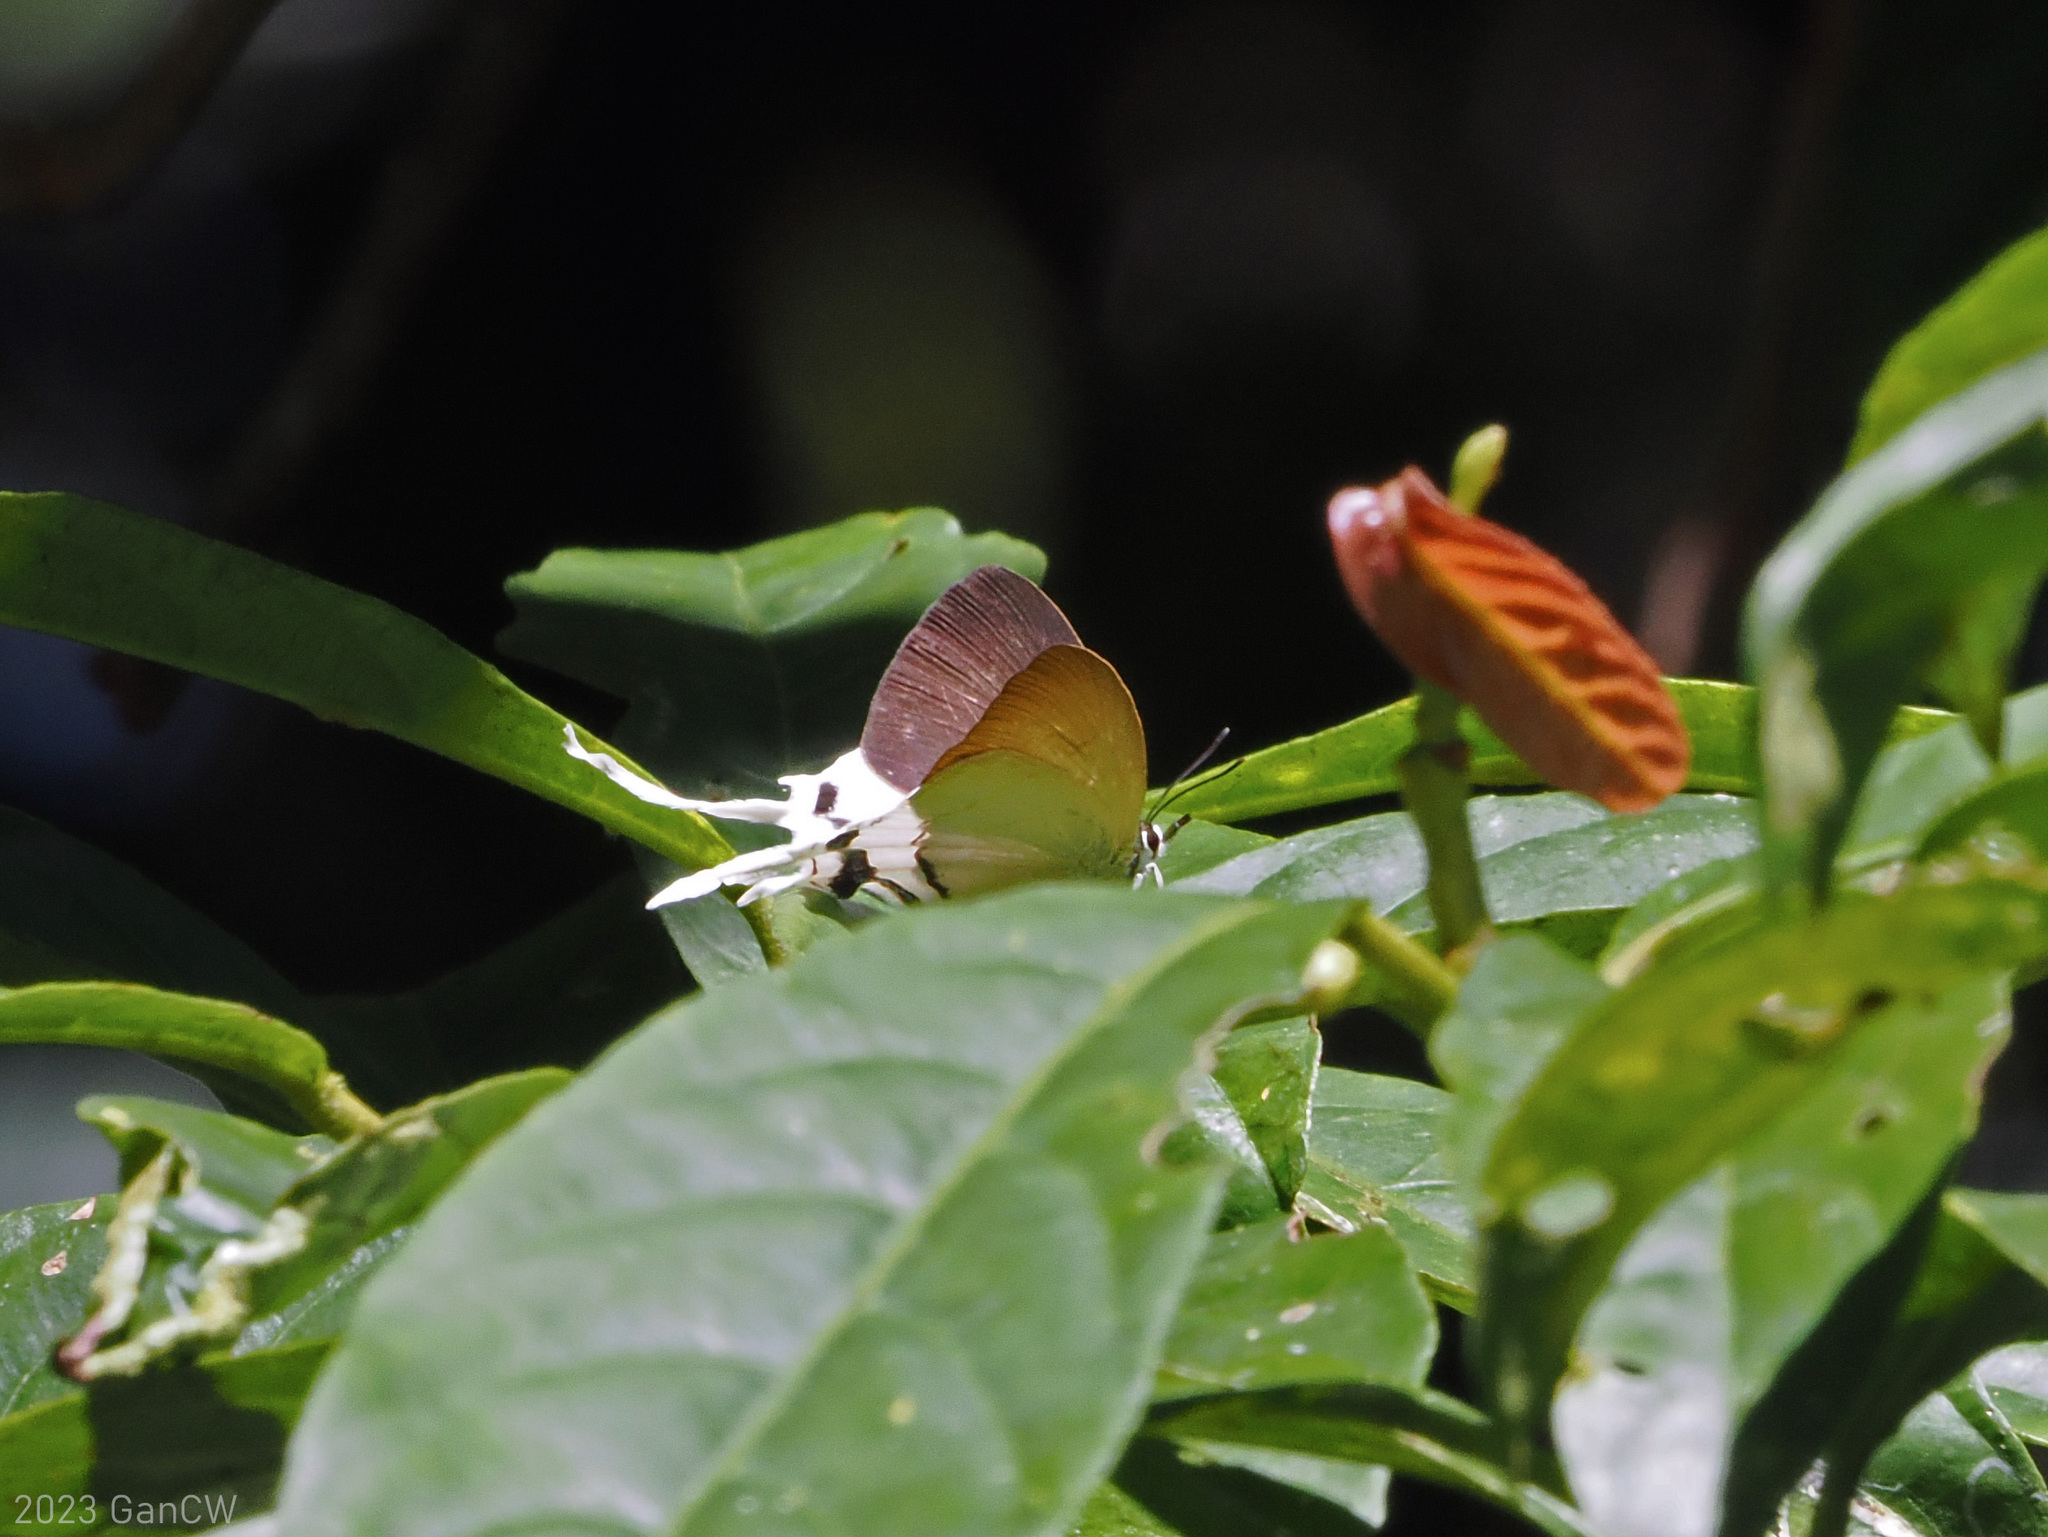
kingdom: Animalia
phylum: Arthropoda
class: Insecta
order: Lepidoptera
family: Lycaenidae
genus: Ticherra
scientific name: Ticherra acte
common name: Blue imperial
